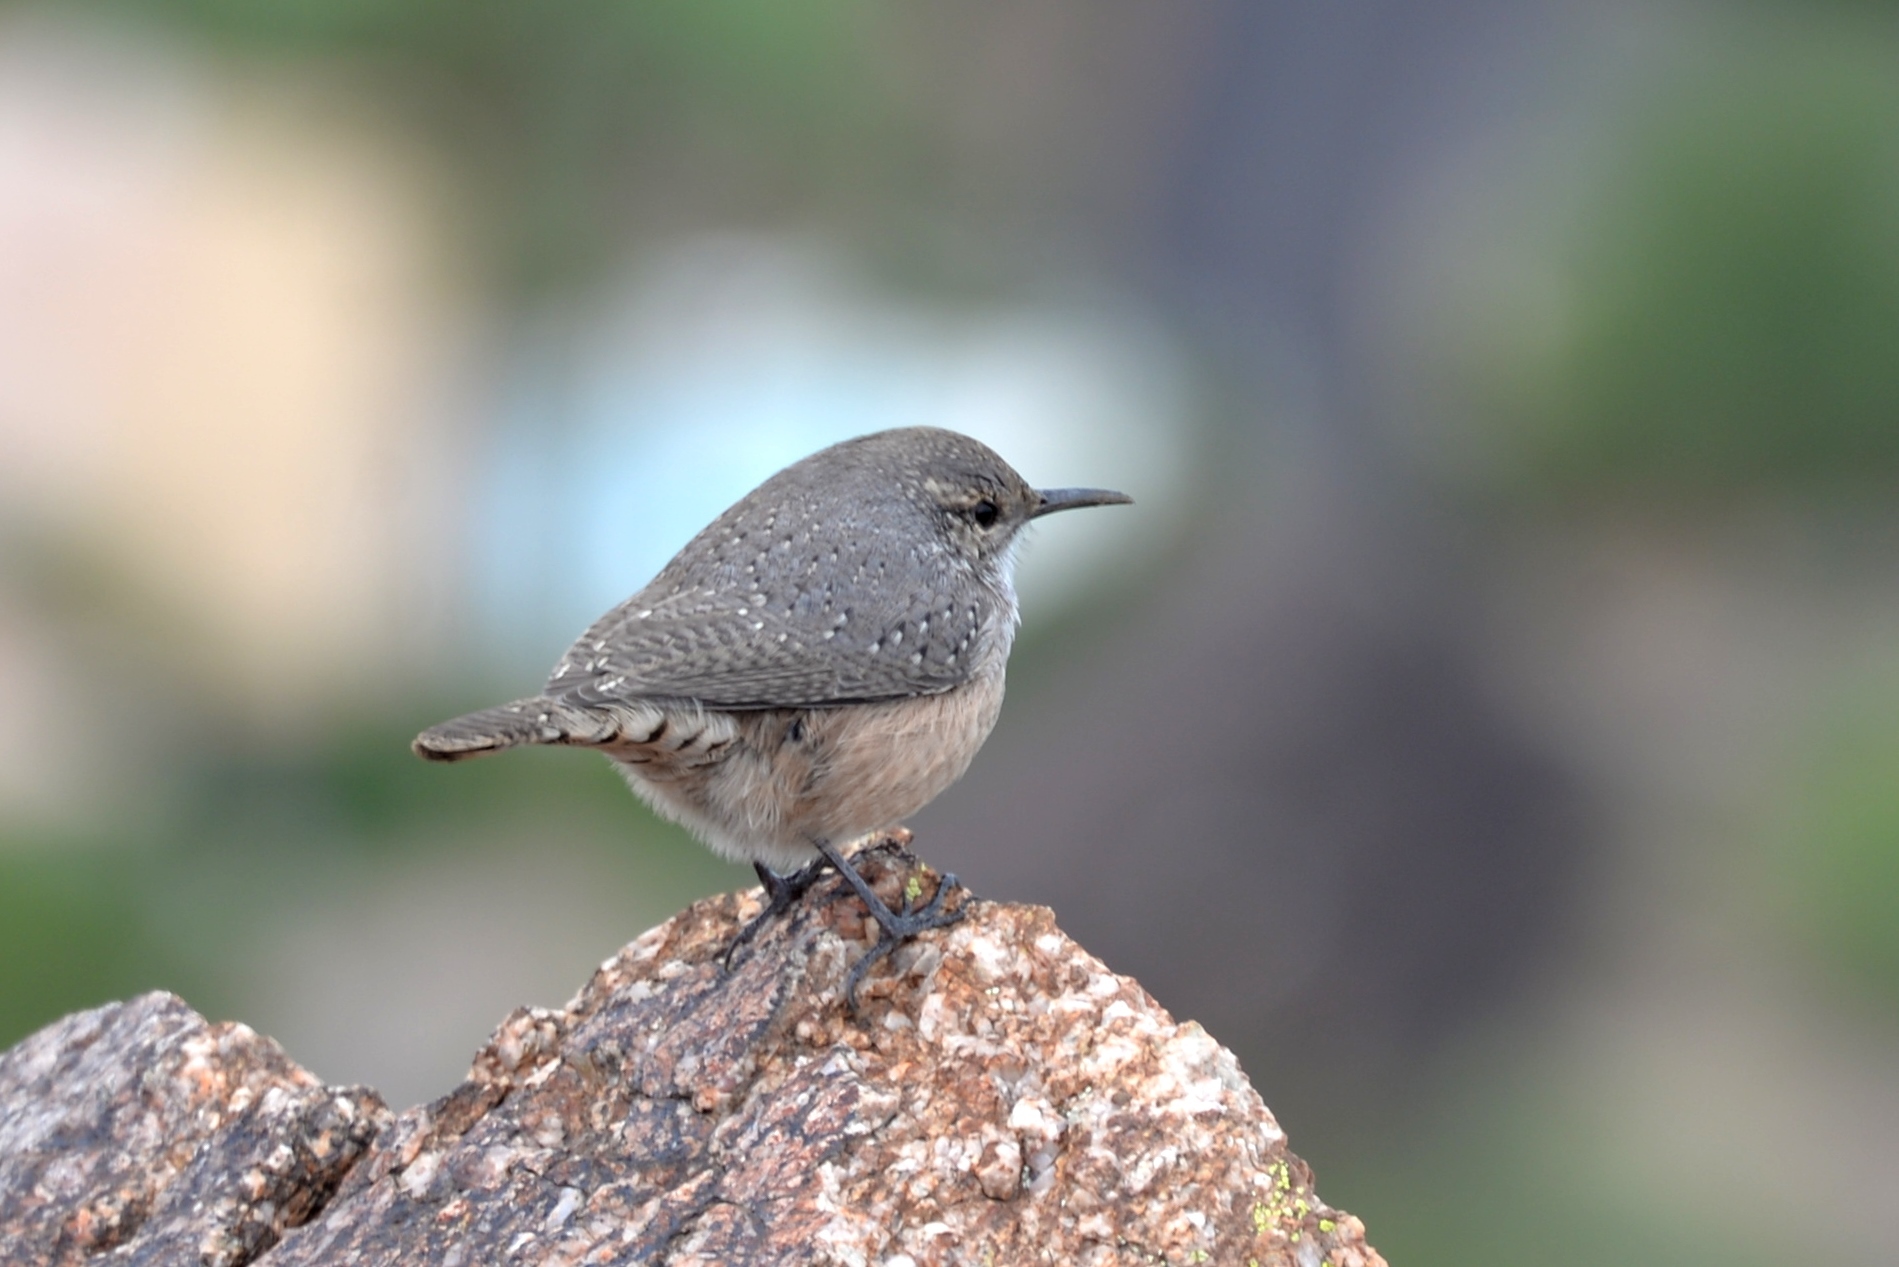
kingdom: Animalia
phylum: Chordata
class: Aves
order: Passeriformes
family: Troglodytidae
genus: Salpinctes
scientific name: Salpinctes obsoletus
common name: Rock wren
